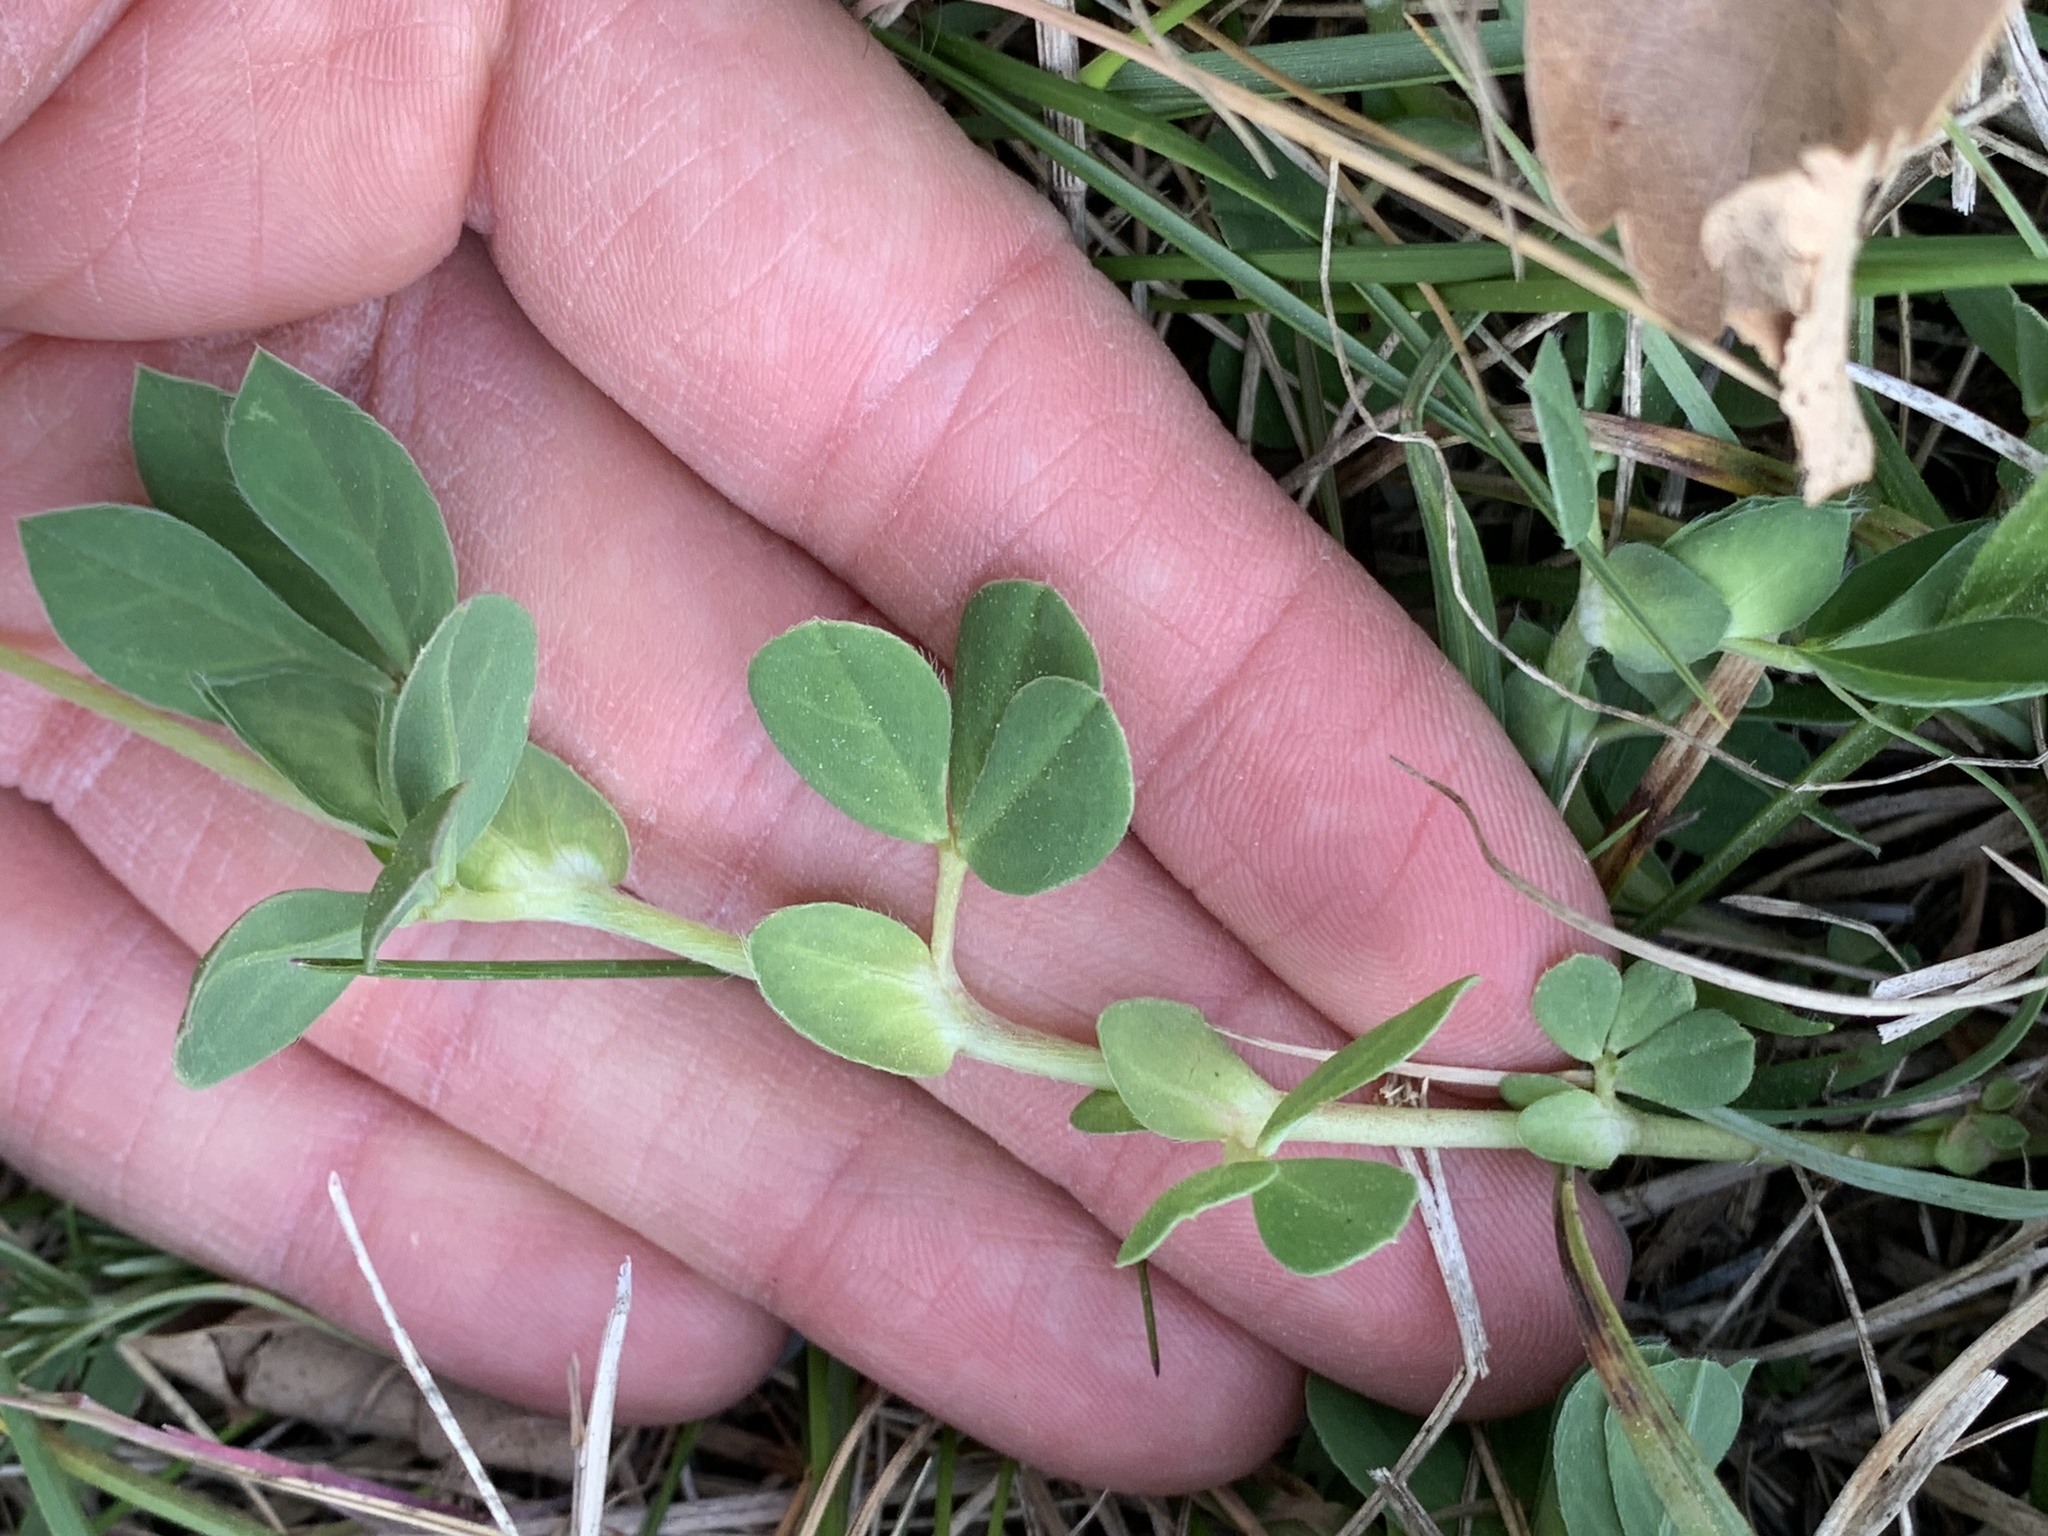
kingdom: Plantae
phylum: Tracheophyta
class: Magnoliopsida
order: Fabales
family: Fabaceae
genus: Lotus
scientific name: Lotus maritimus
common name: Dragon's-teeth
